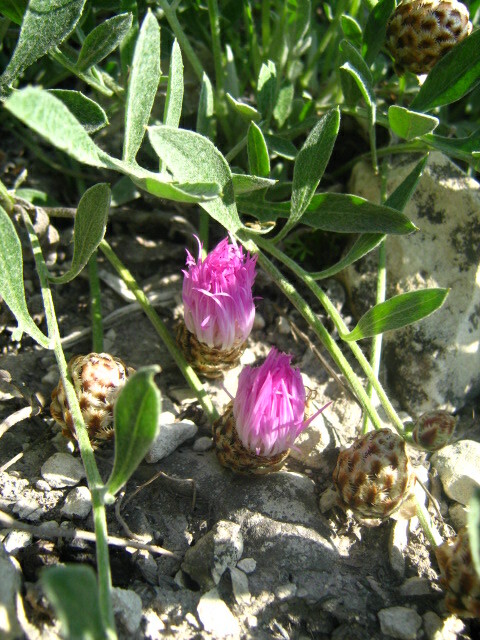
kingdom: Plantae
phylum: Tracheophyta
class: Magnoliopsida
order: Asterales
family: Asteraceae
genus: Psephellus
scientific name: Psephellus marschallianus
